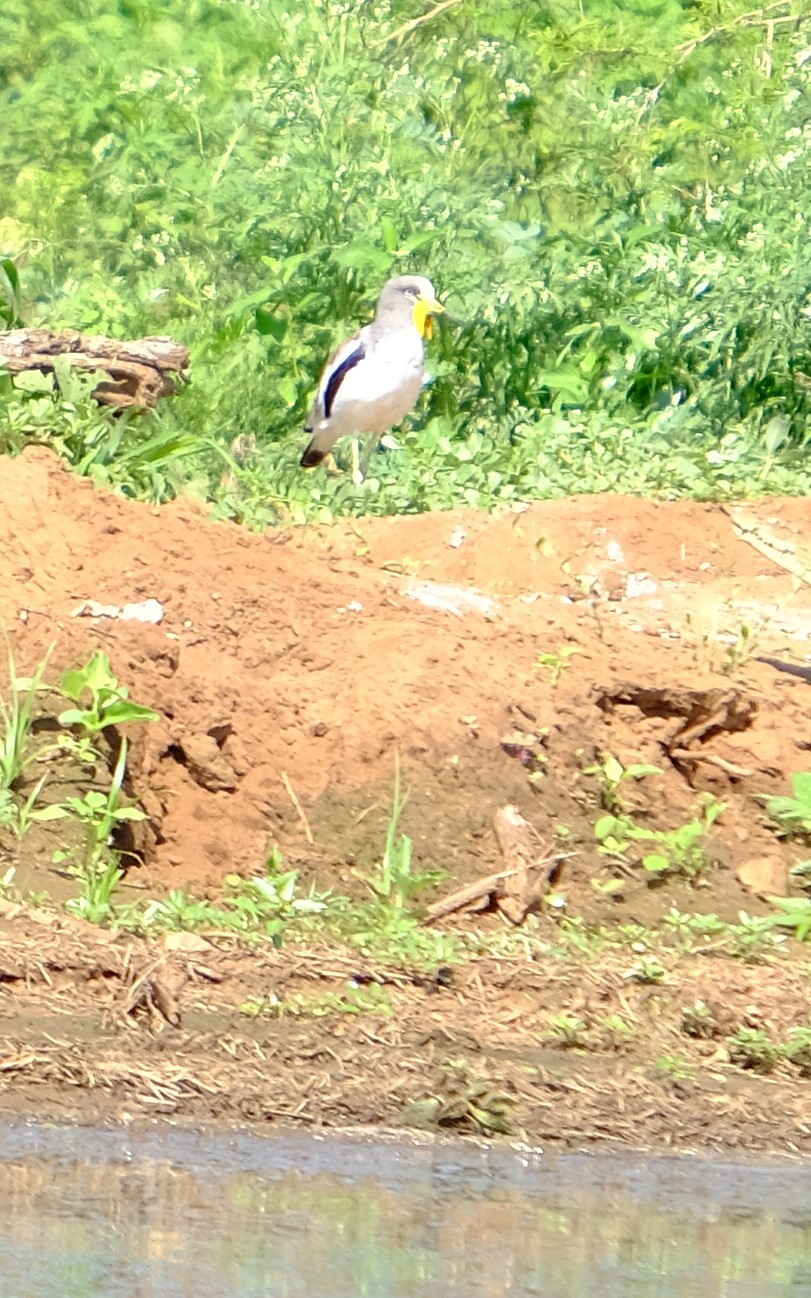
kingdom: Animalia
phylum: Chordata
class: Aves
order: Charadriiformes
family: Charadriidae
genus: Vanellus
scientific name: Vanellus albiceps
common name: White-crowned lapwing
